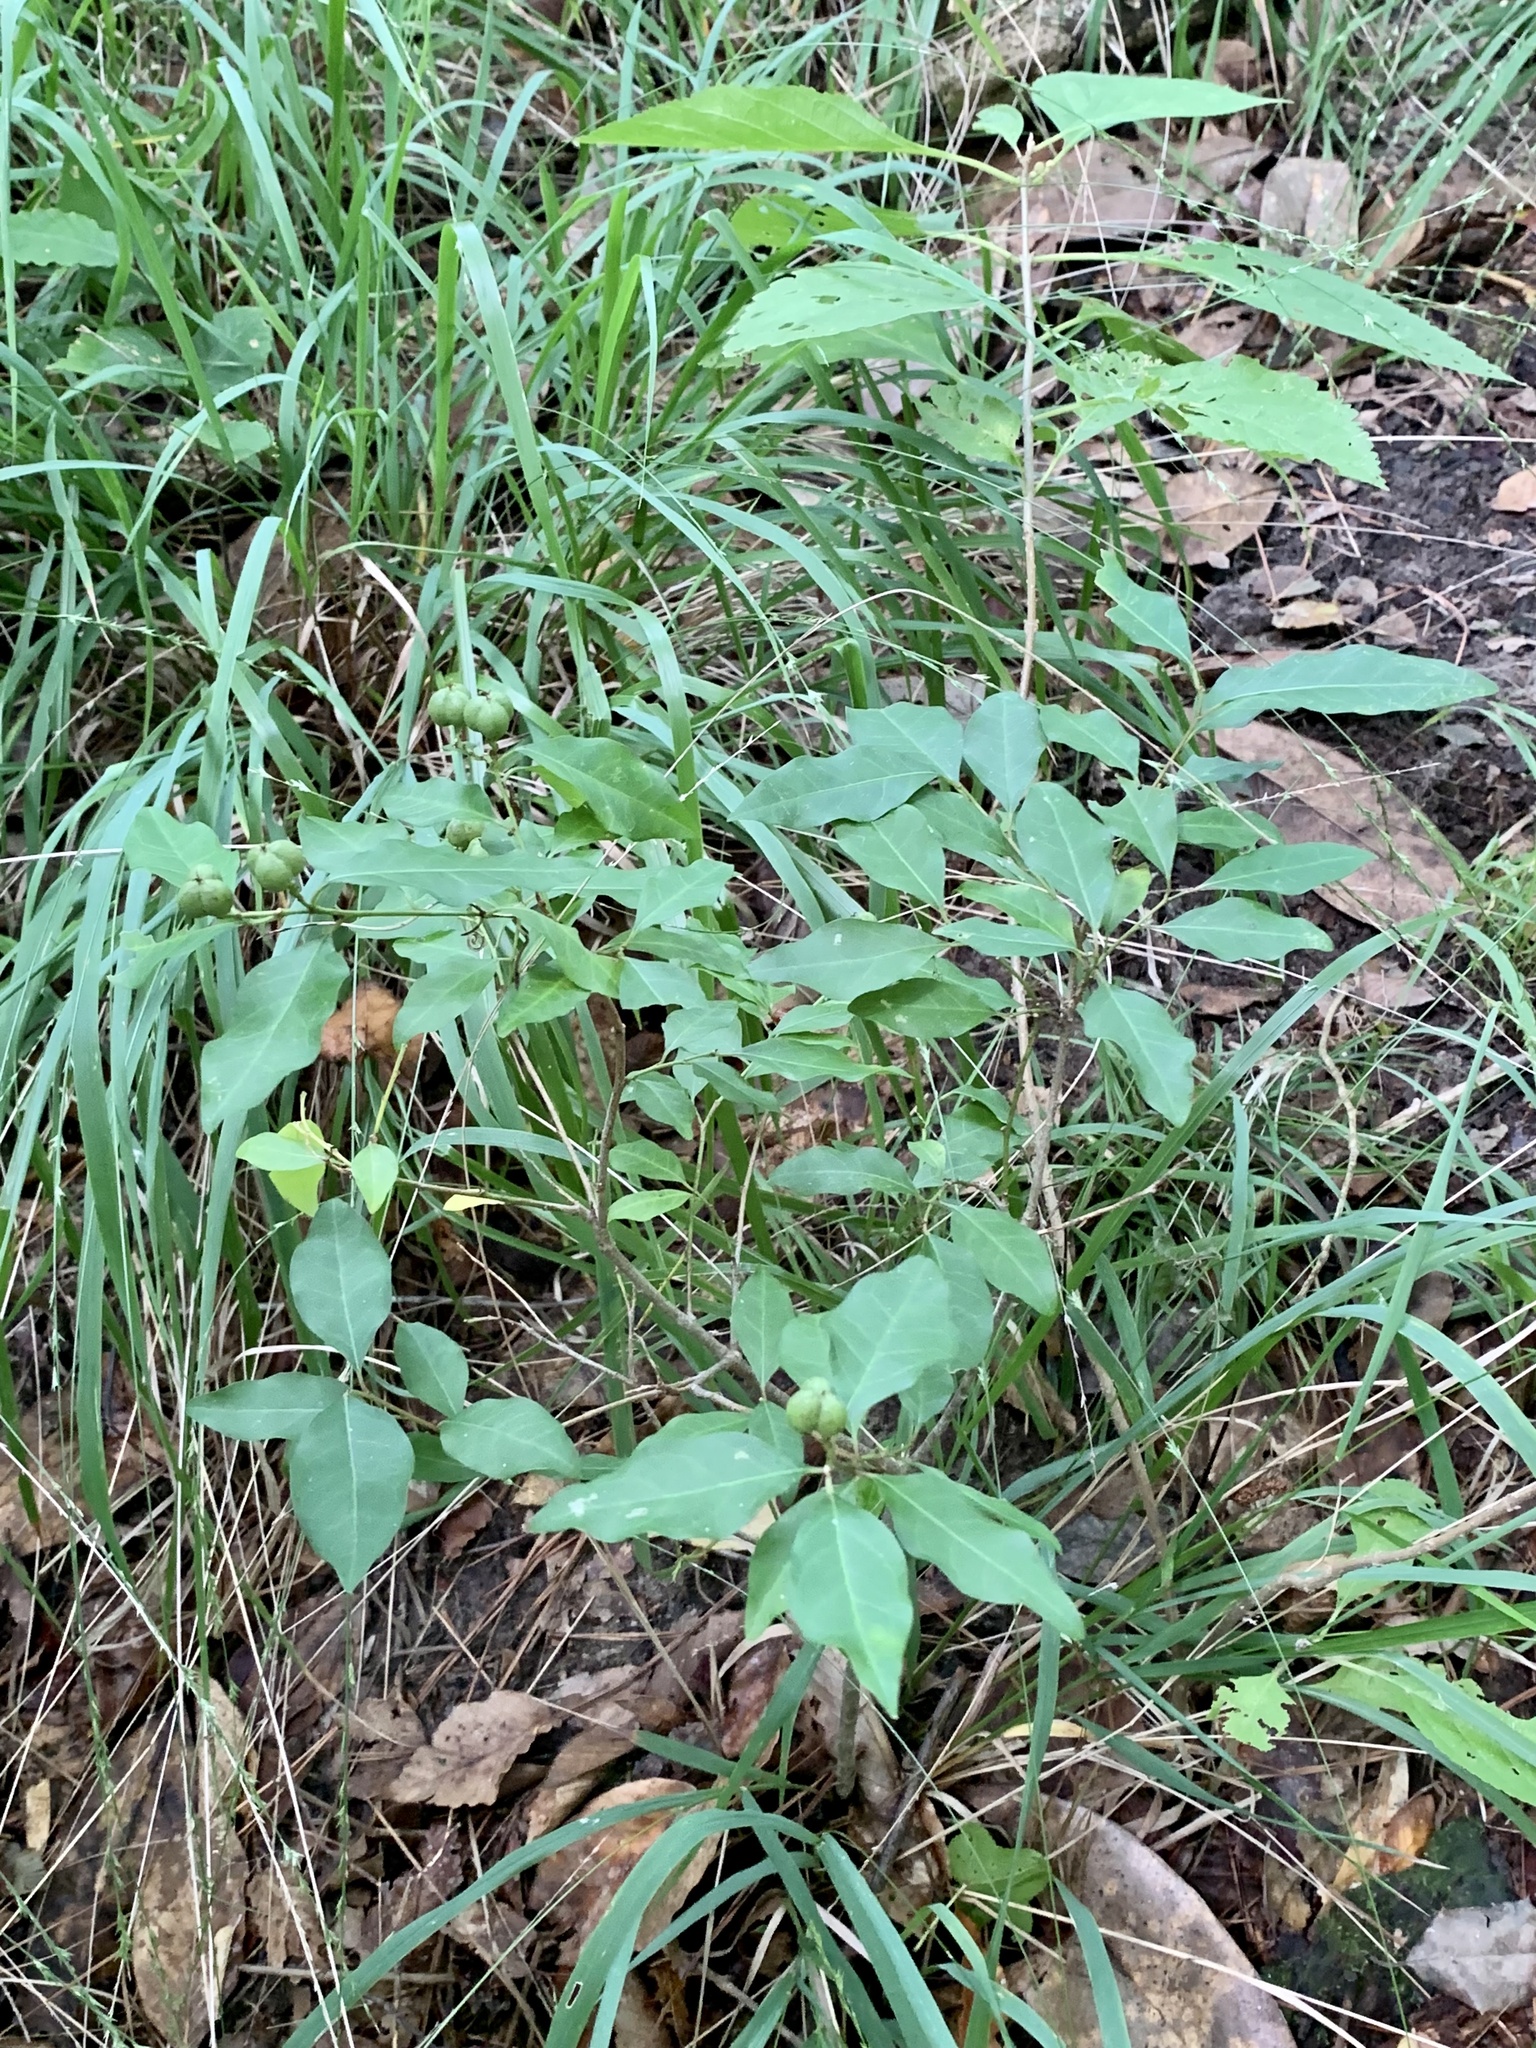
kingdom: Plantae
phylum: Tracheophyta
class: Magnoliopsida
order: Malpighiales
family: Euphorbiaceae
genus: Ditrysinia
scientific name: Ditrysinia fruticosa
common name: Gulf sebastian-bush
